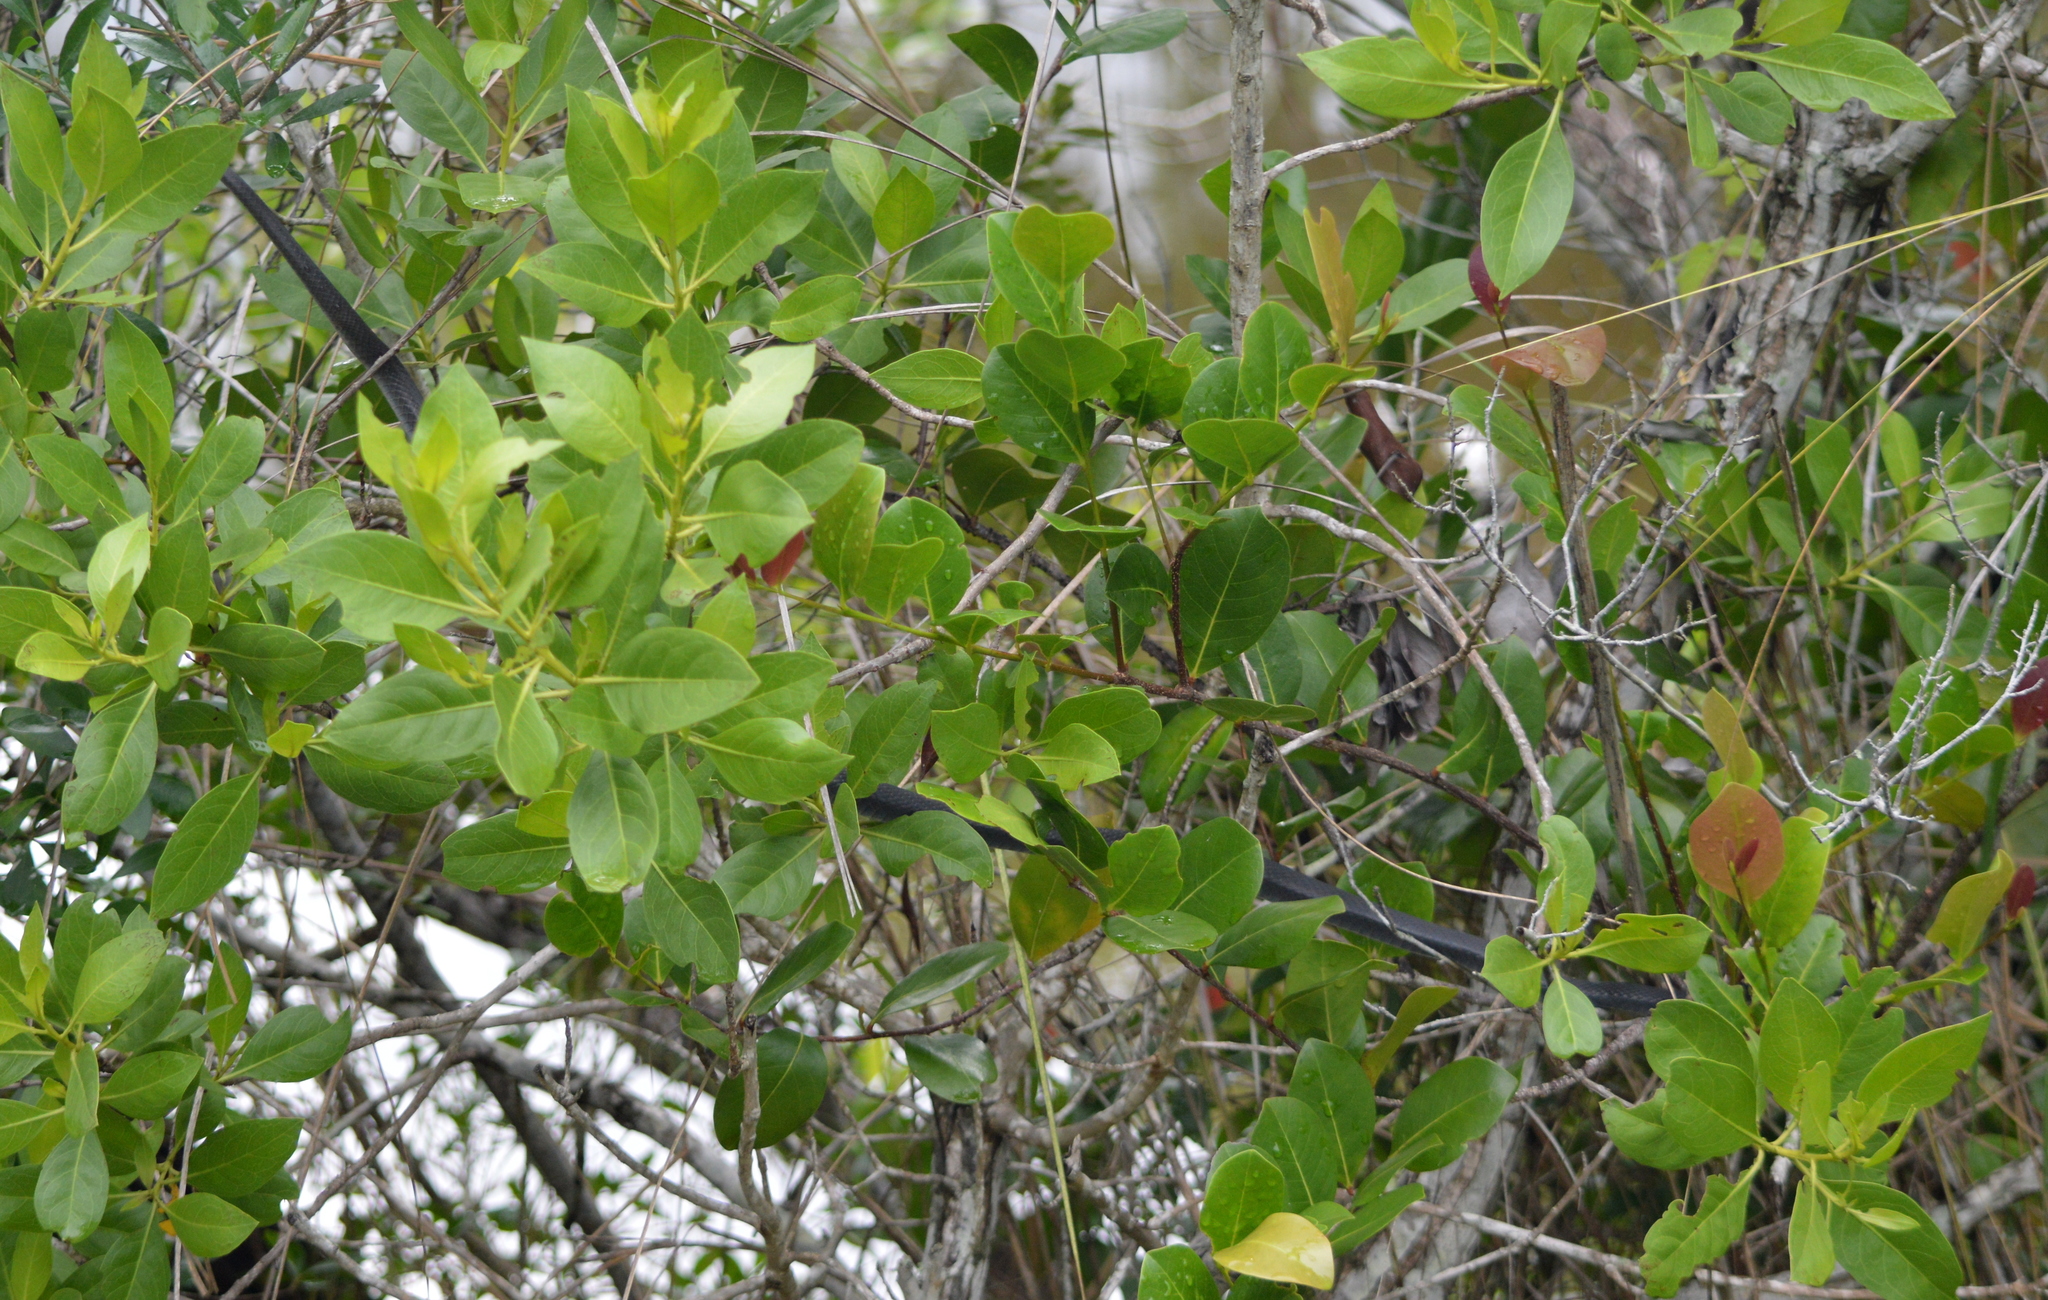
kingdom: Animalia
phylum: Chordata
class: Squamata
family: Colubridae
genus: Coluber
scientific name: Coluber constrictor
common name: Eastern racer
